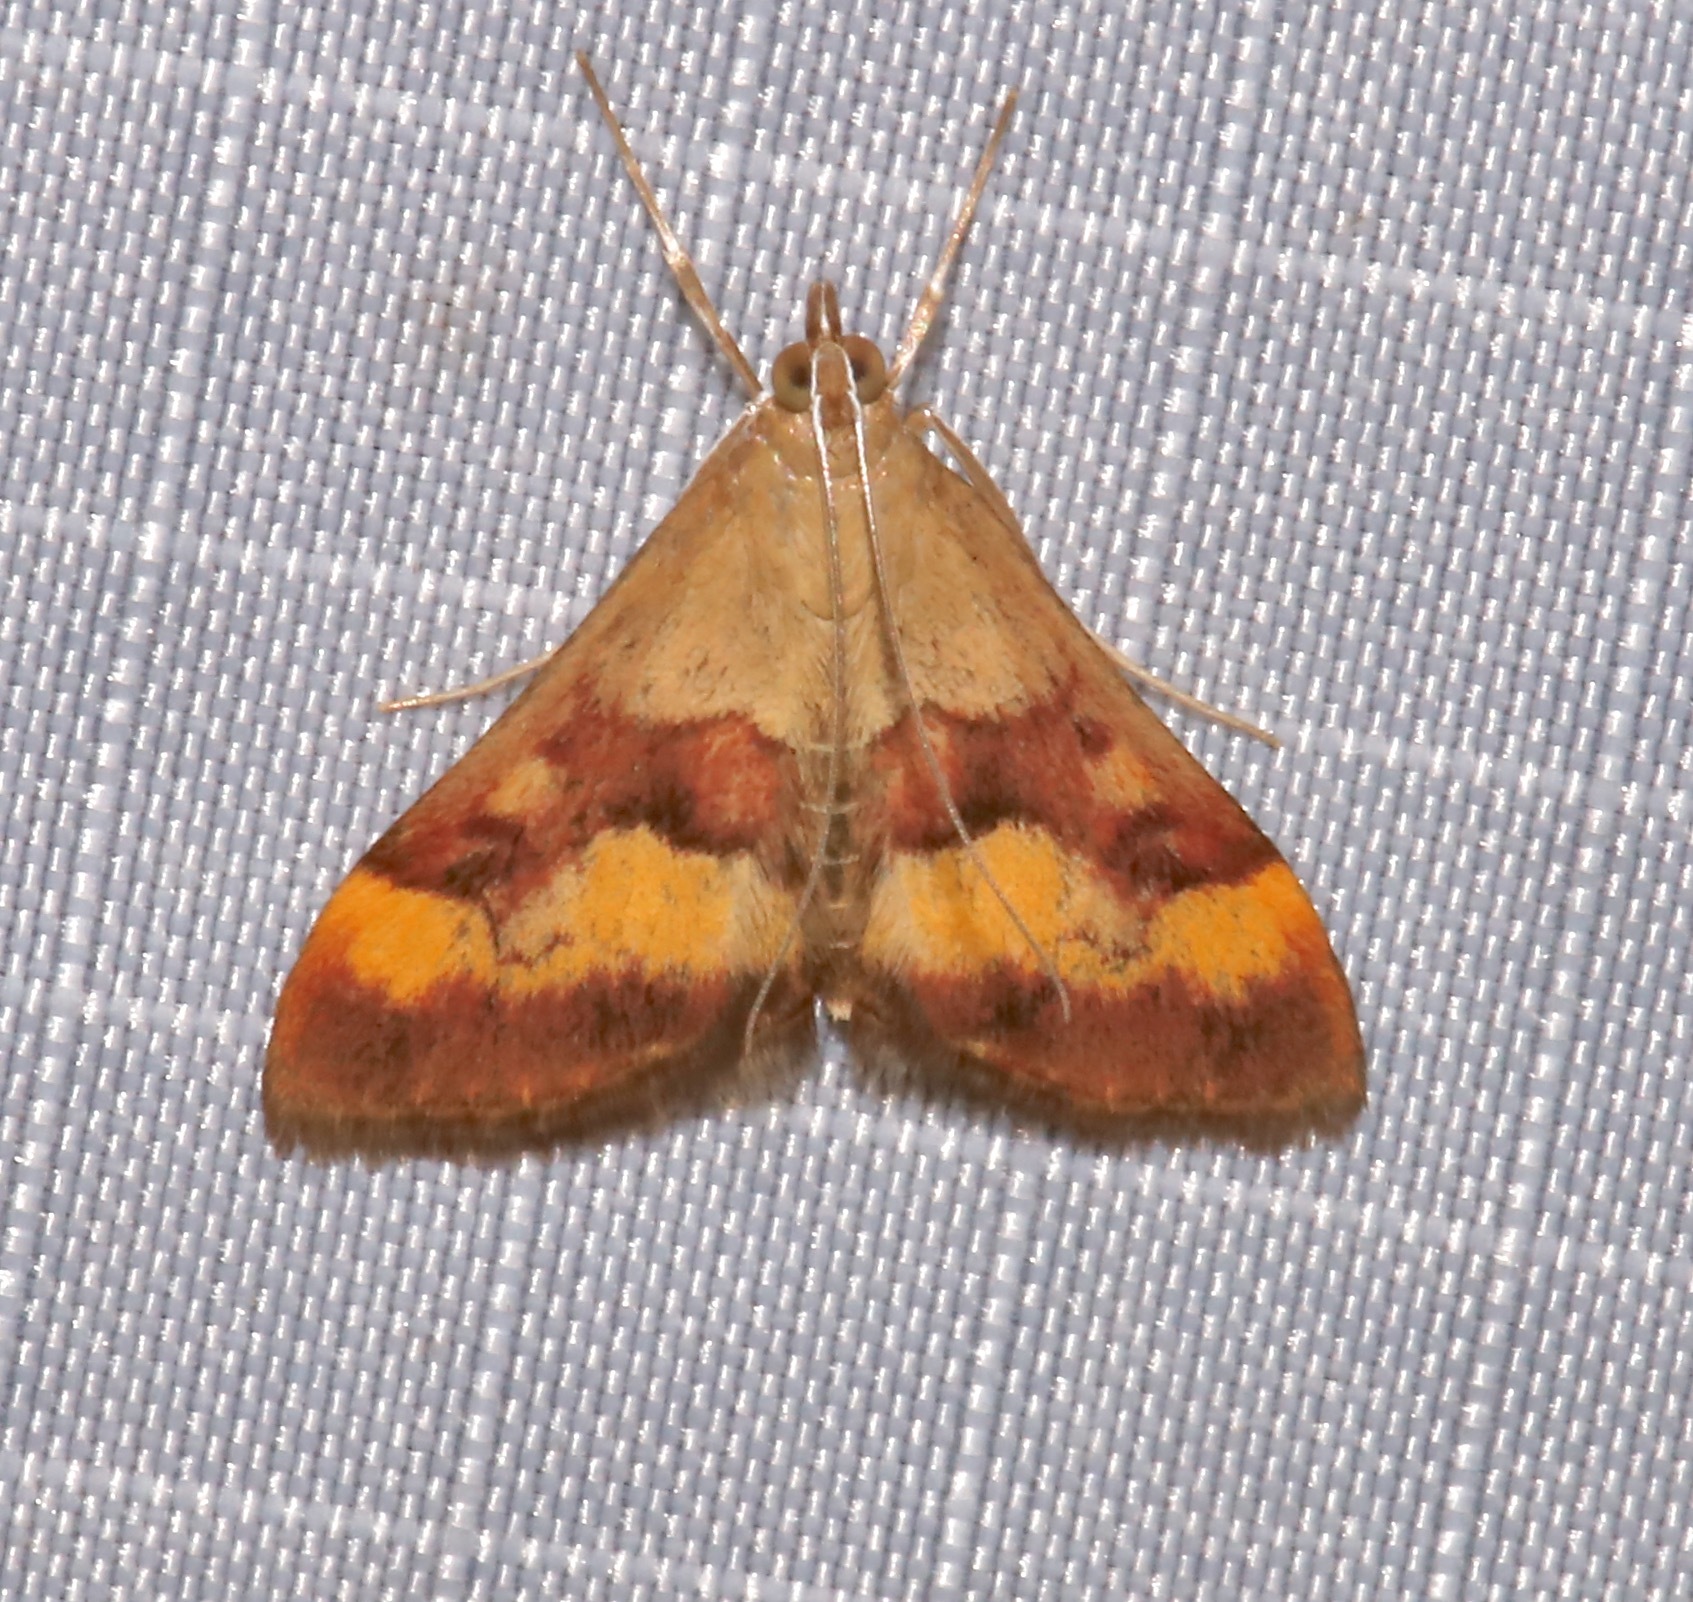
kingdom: Animalia
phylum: Arthropoda
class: Insecta
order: Lepidoptera
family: Crambidae
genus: Pyrausta
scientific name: Pyrausta flavofascialis
